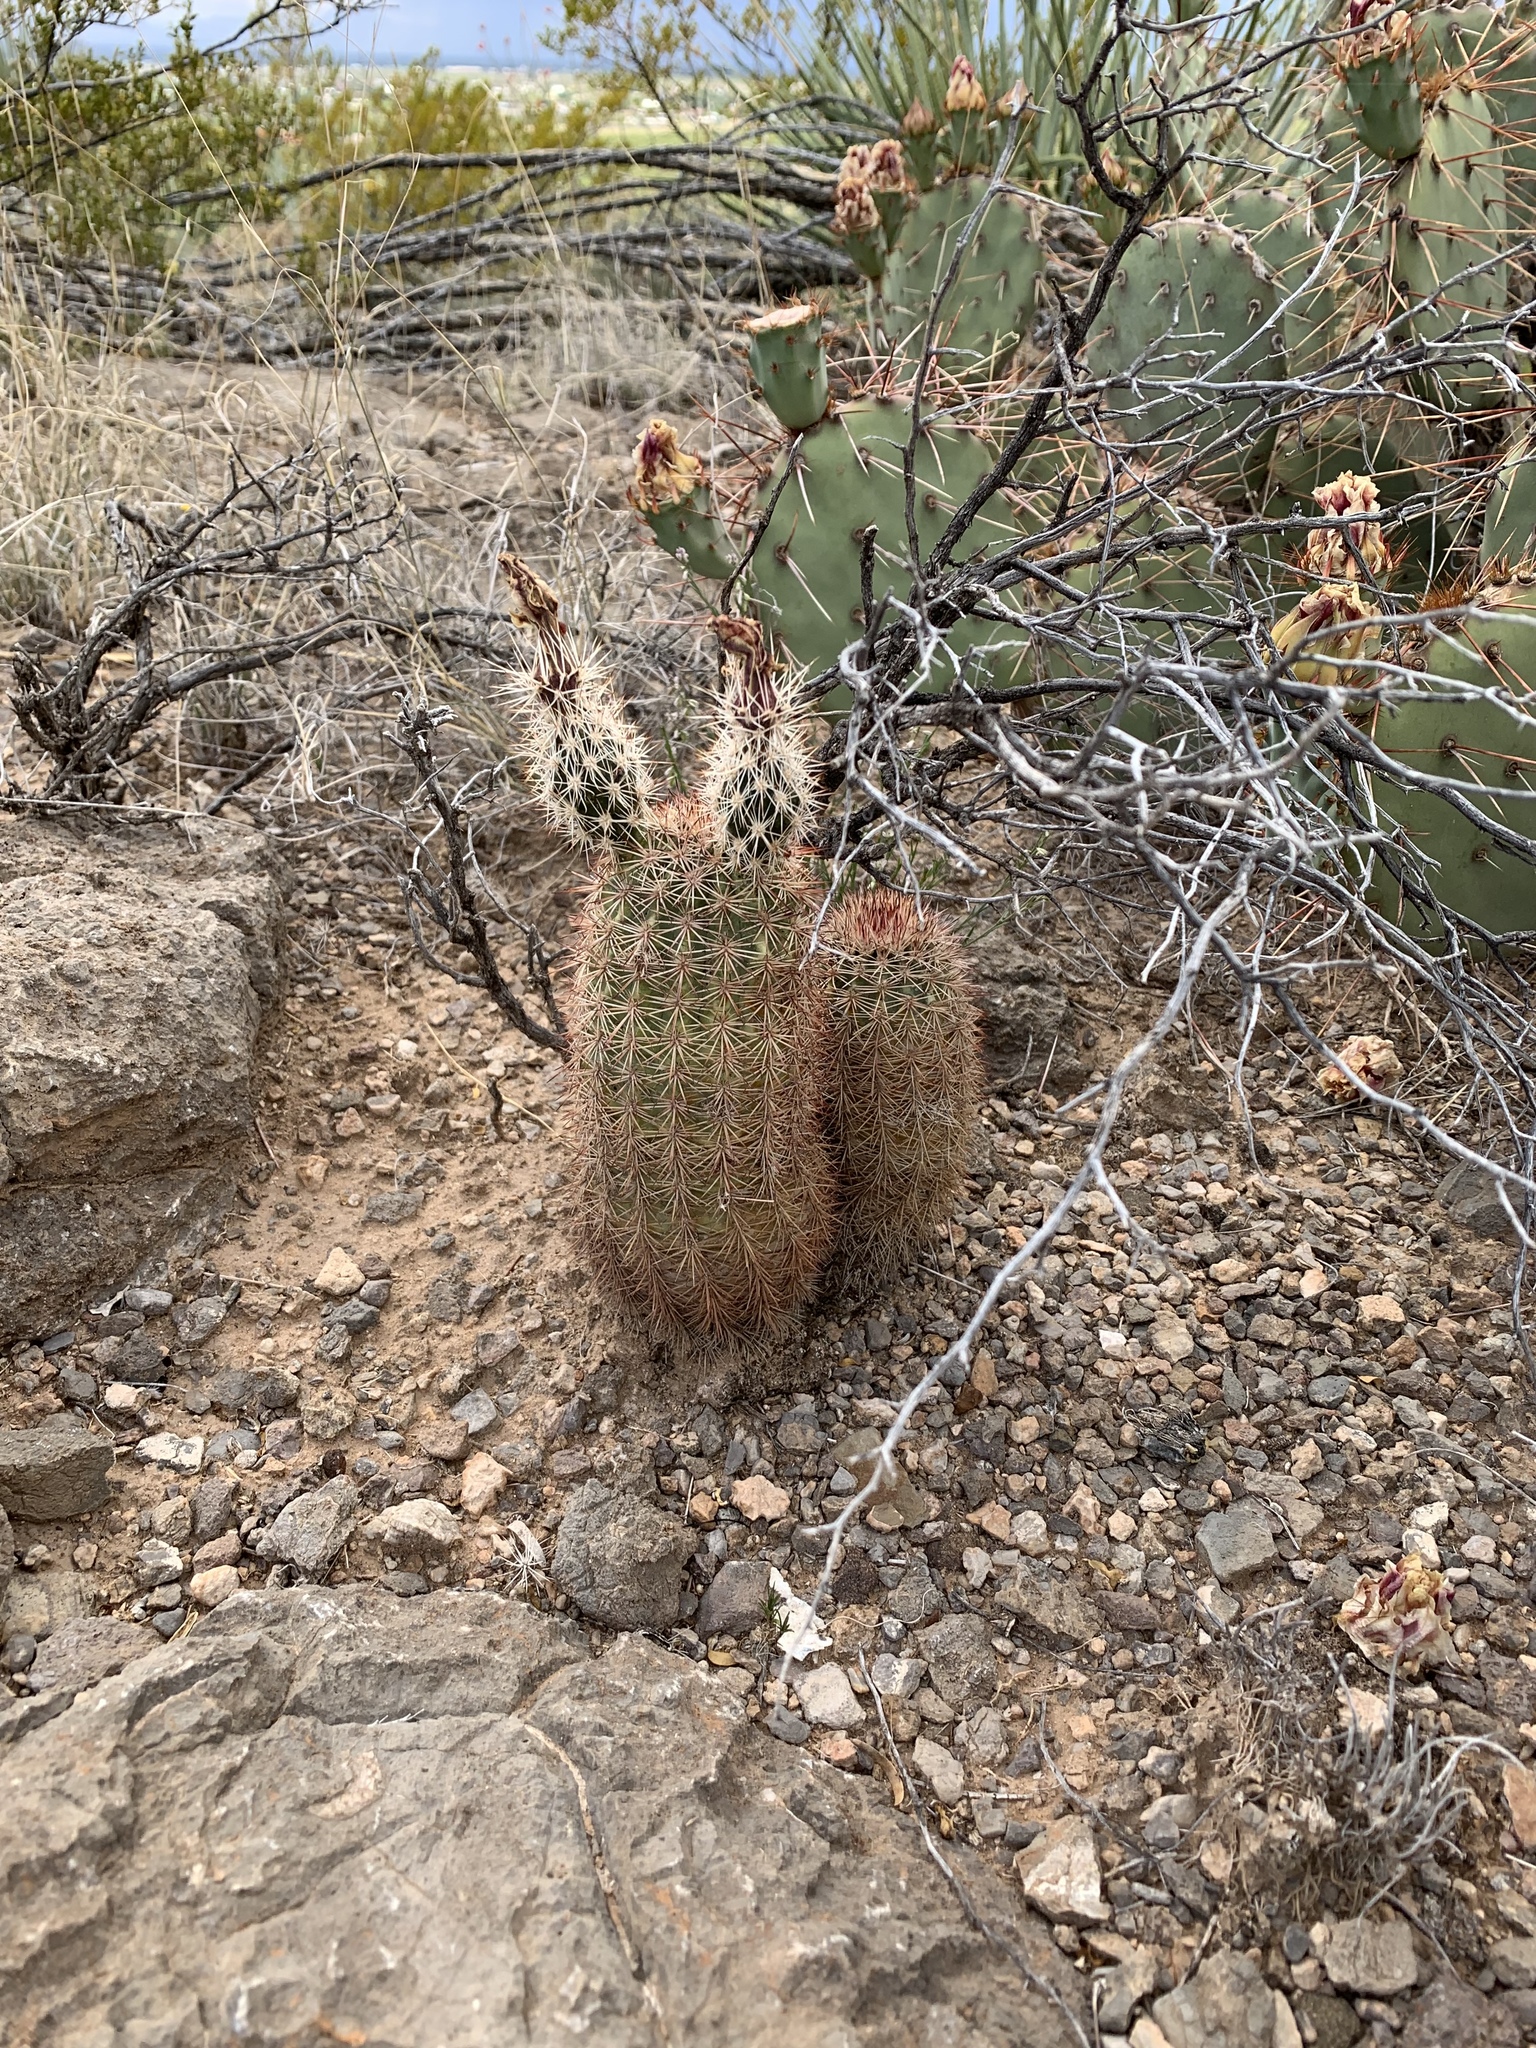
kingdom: Plantae
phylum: Tracheophyta
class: Magnoliopsida
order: Caryophyllales
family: Cactaceae
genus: Echinocereus
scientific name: Echinocereus dasyacanthus
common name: Spiny hedgehog cactus
